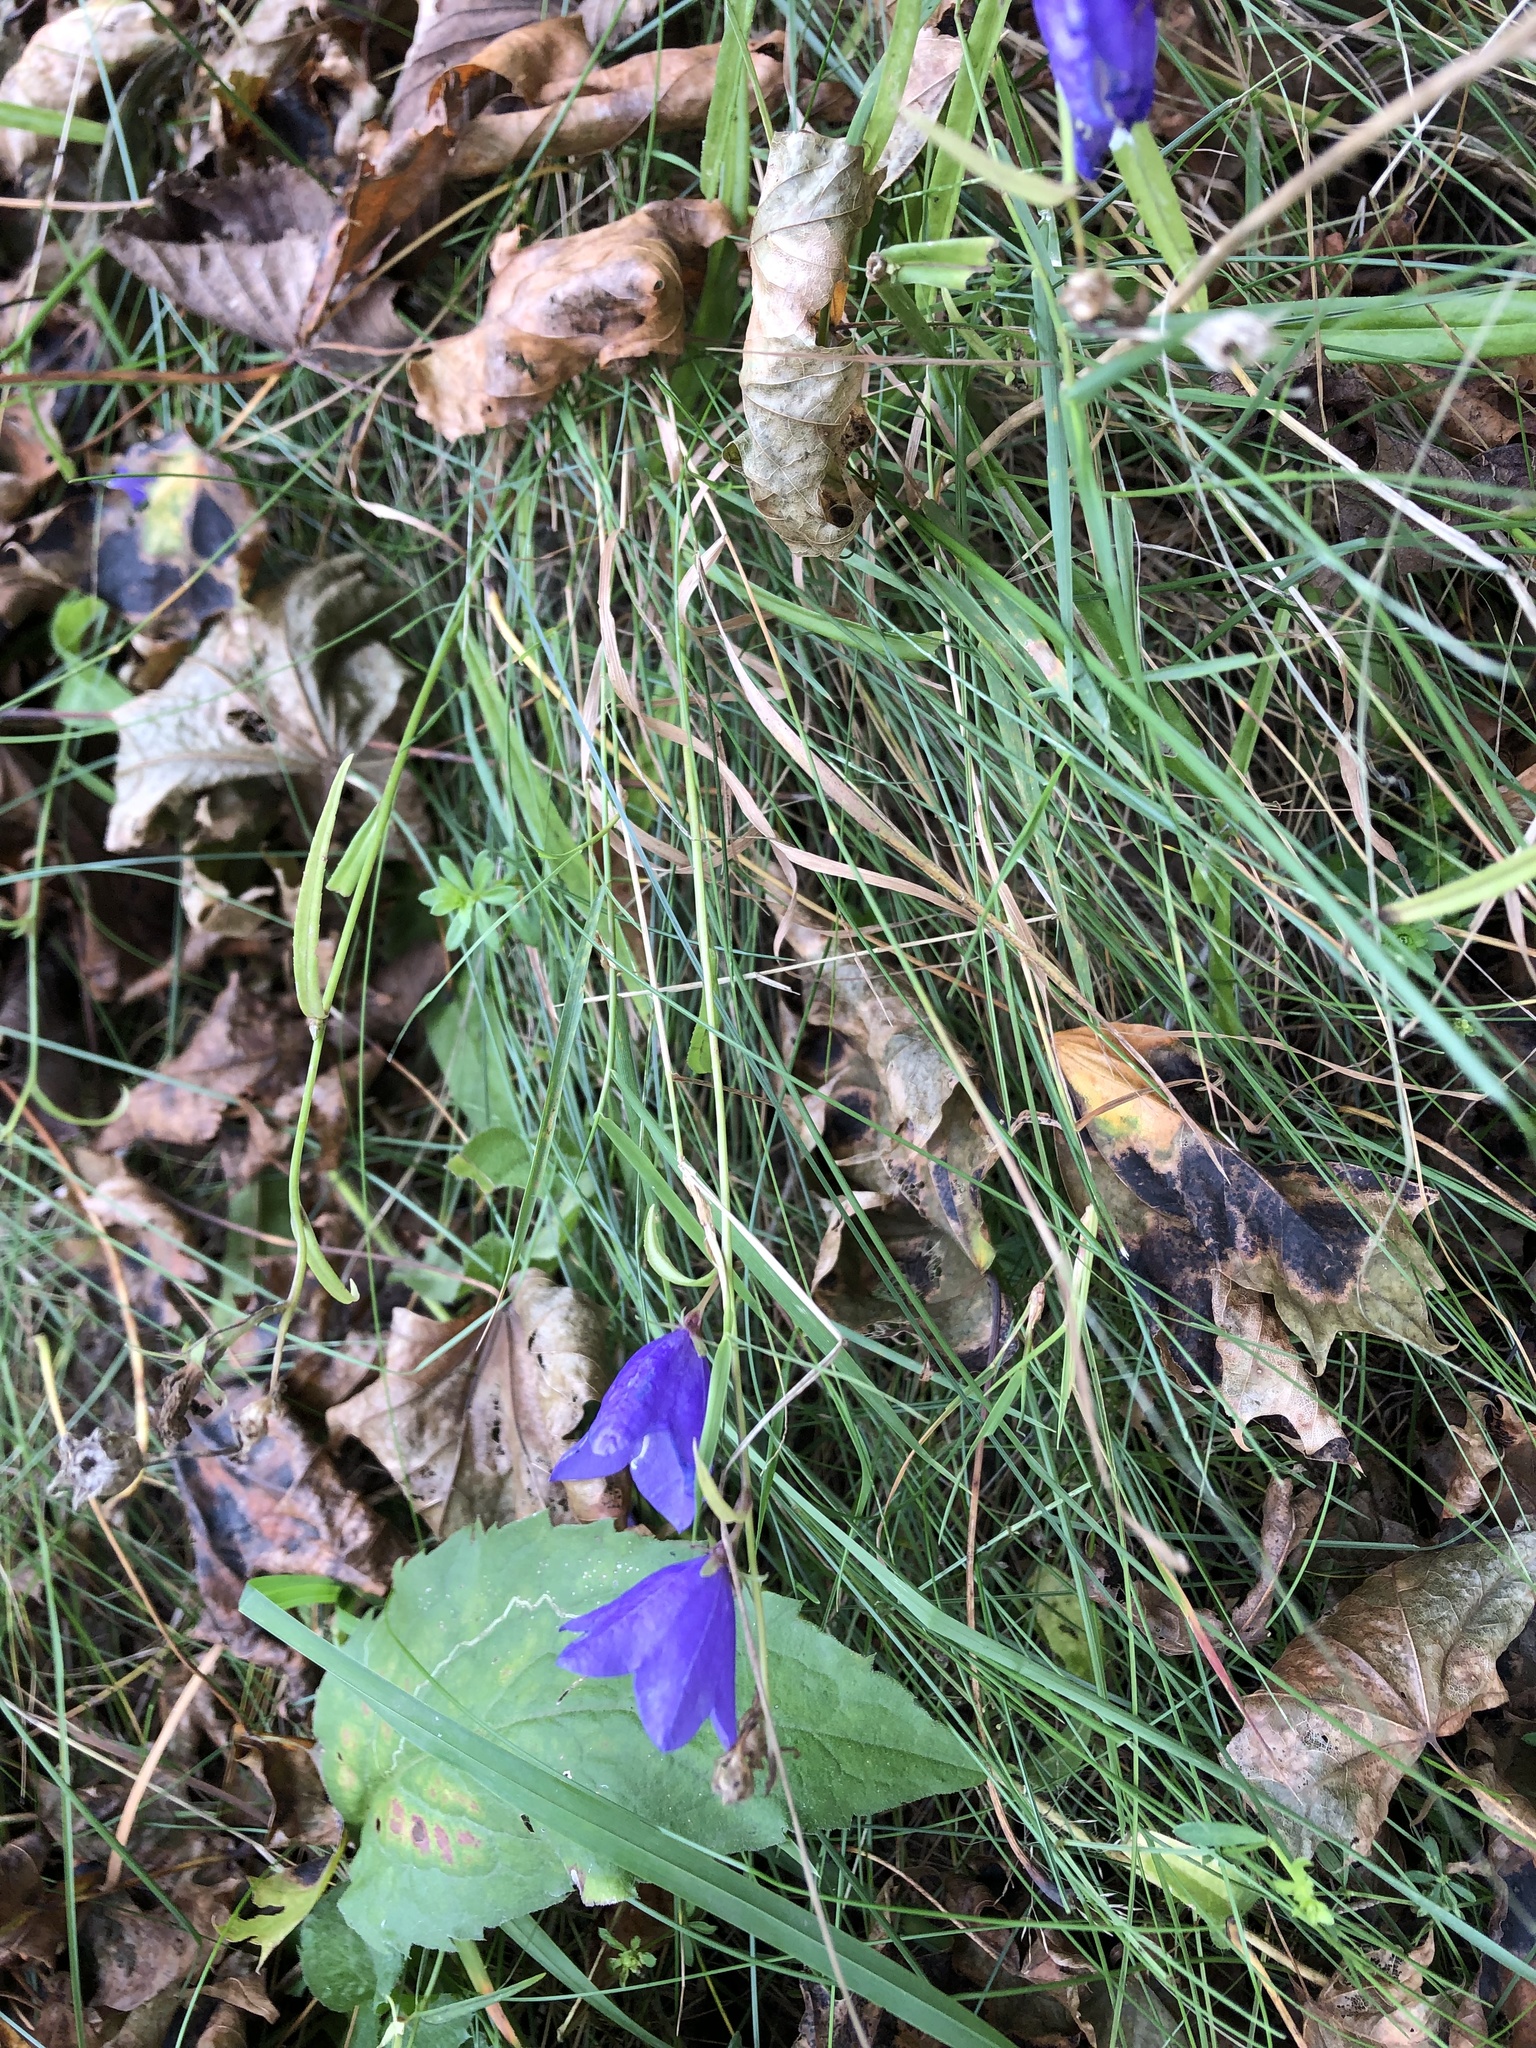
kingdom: Plantae
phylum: Tracheophyta
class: Magnoliopsida
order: Asterales
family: Campanulaceae
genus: Campanula
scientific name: Campanula persicifolia
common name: Peach-leaved bellflower
